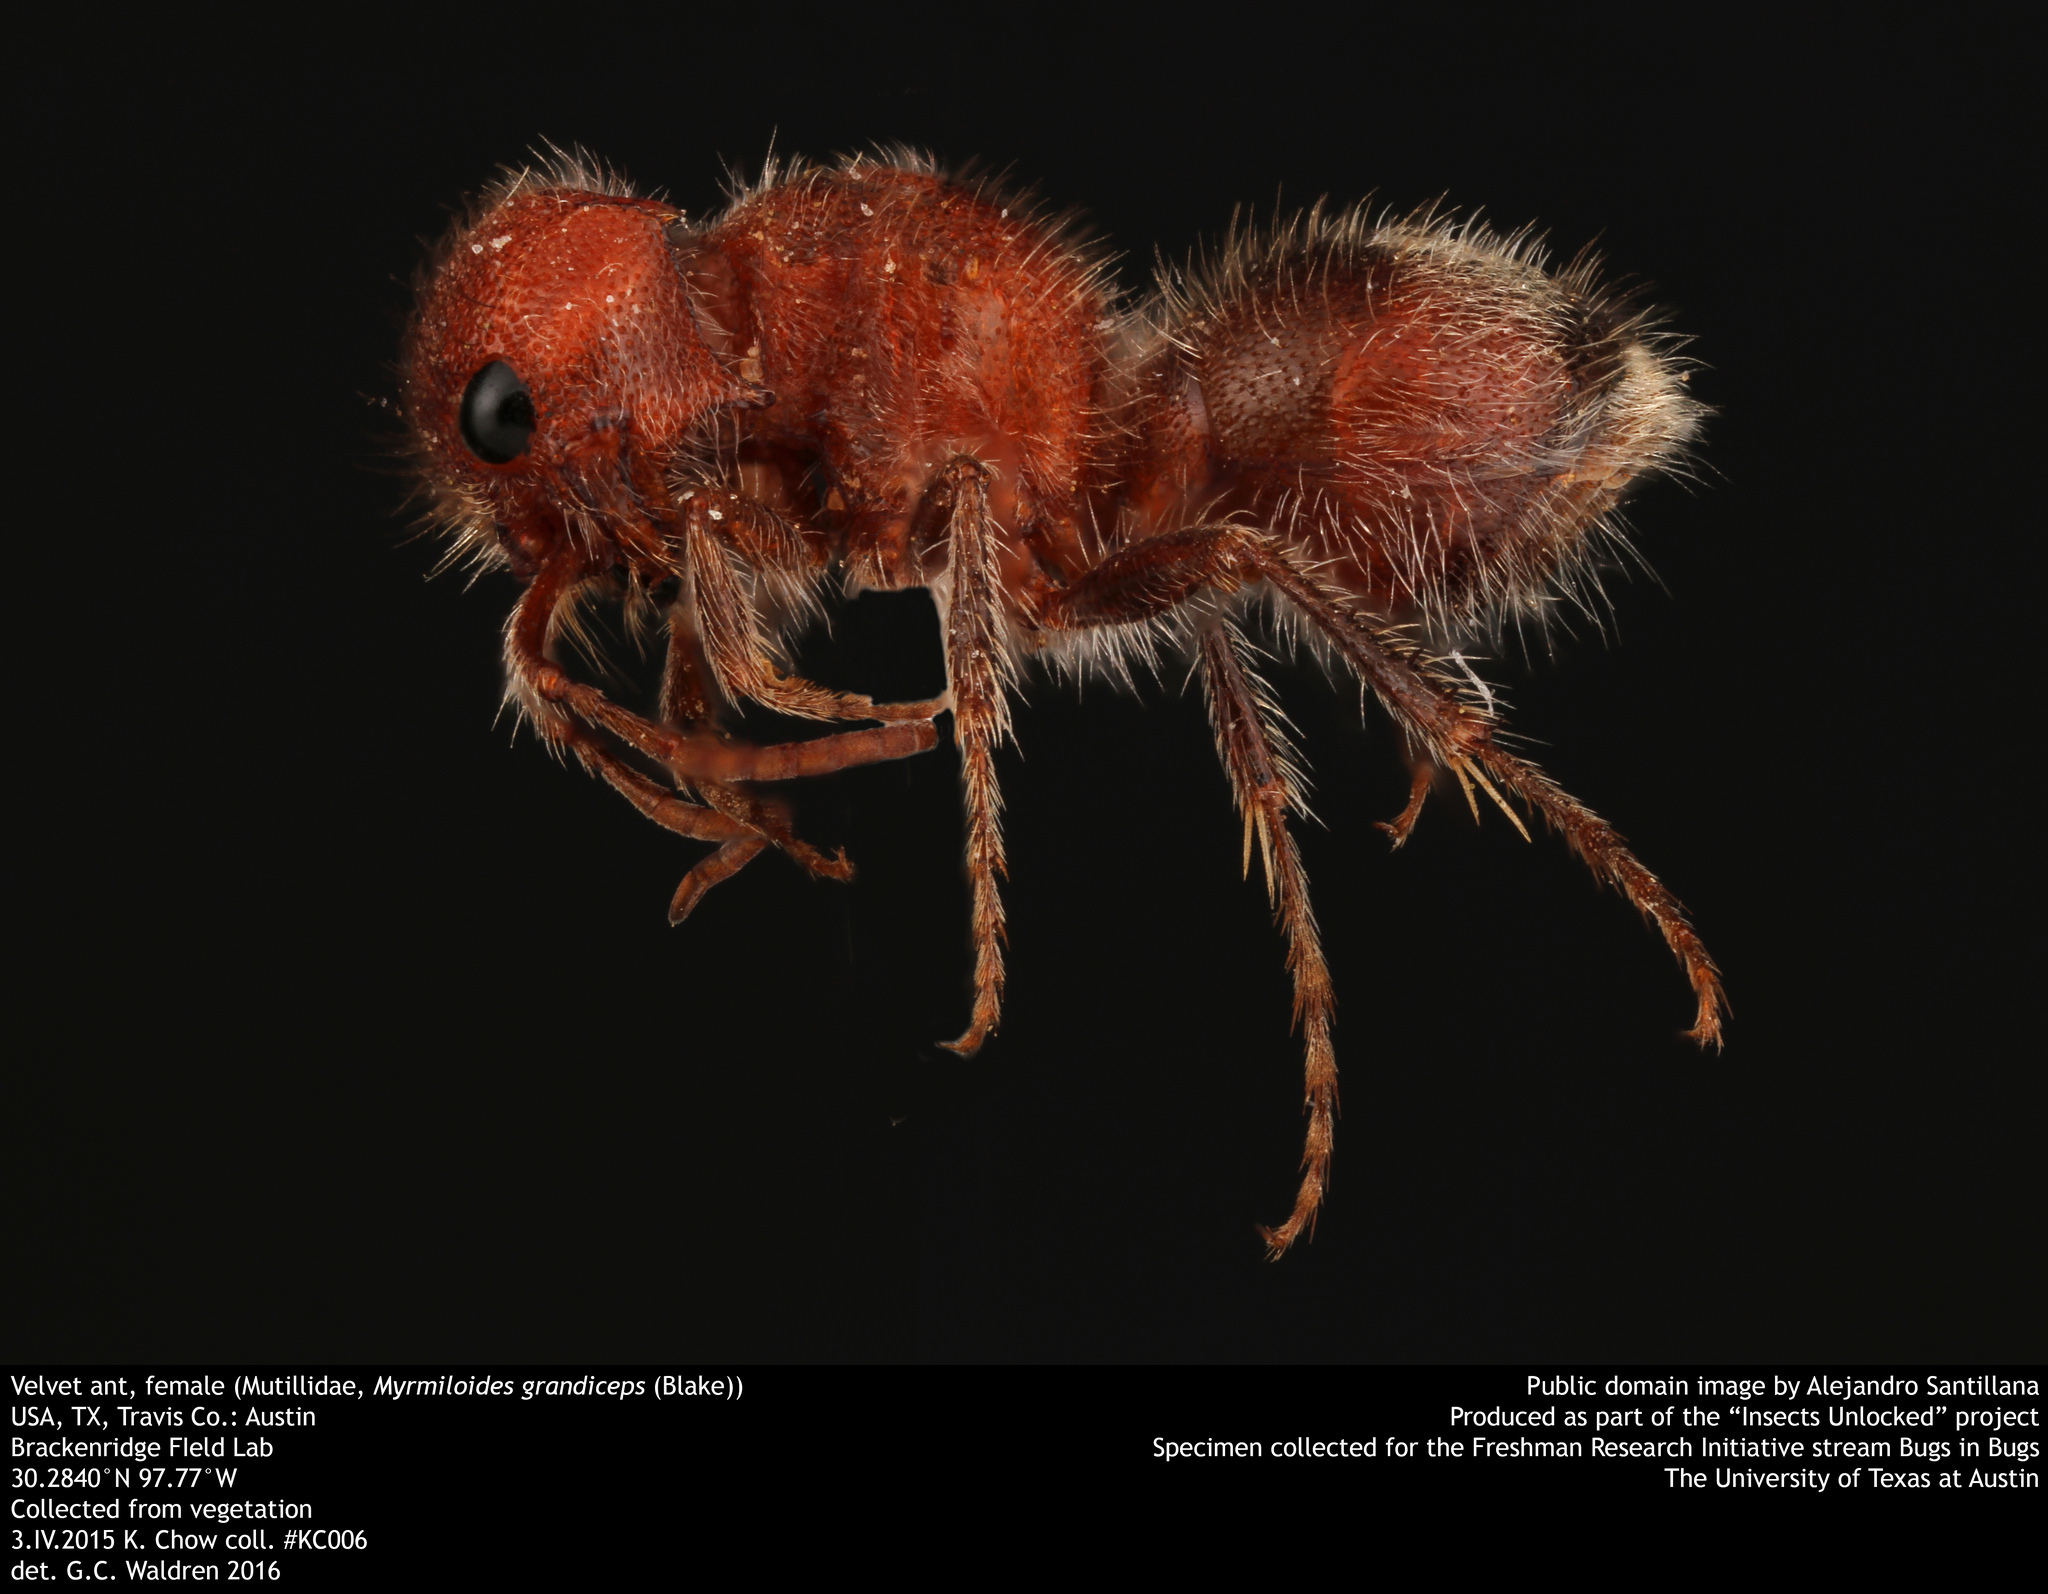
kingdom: Animalia
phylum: Arthropoda
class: Insecta
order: Hymenoptera
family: Mutillidae
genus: Myrmilloides
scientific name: Myrmilloides
